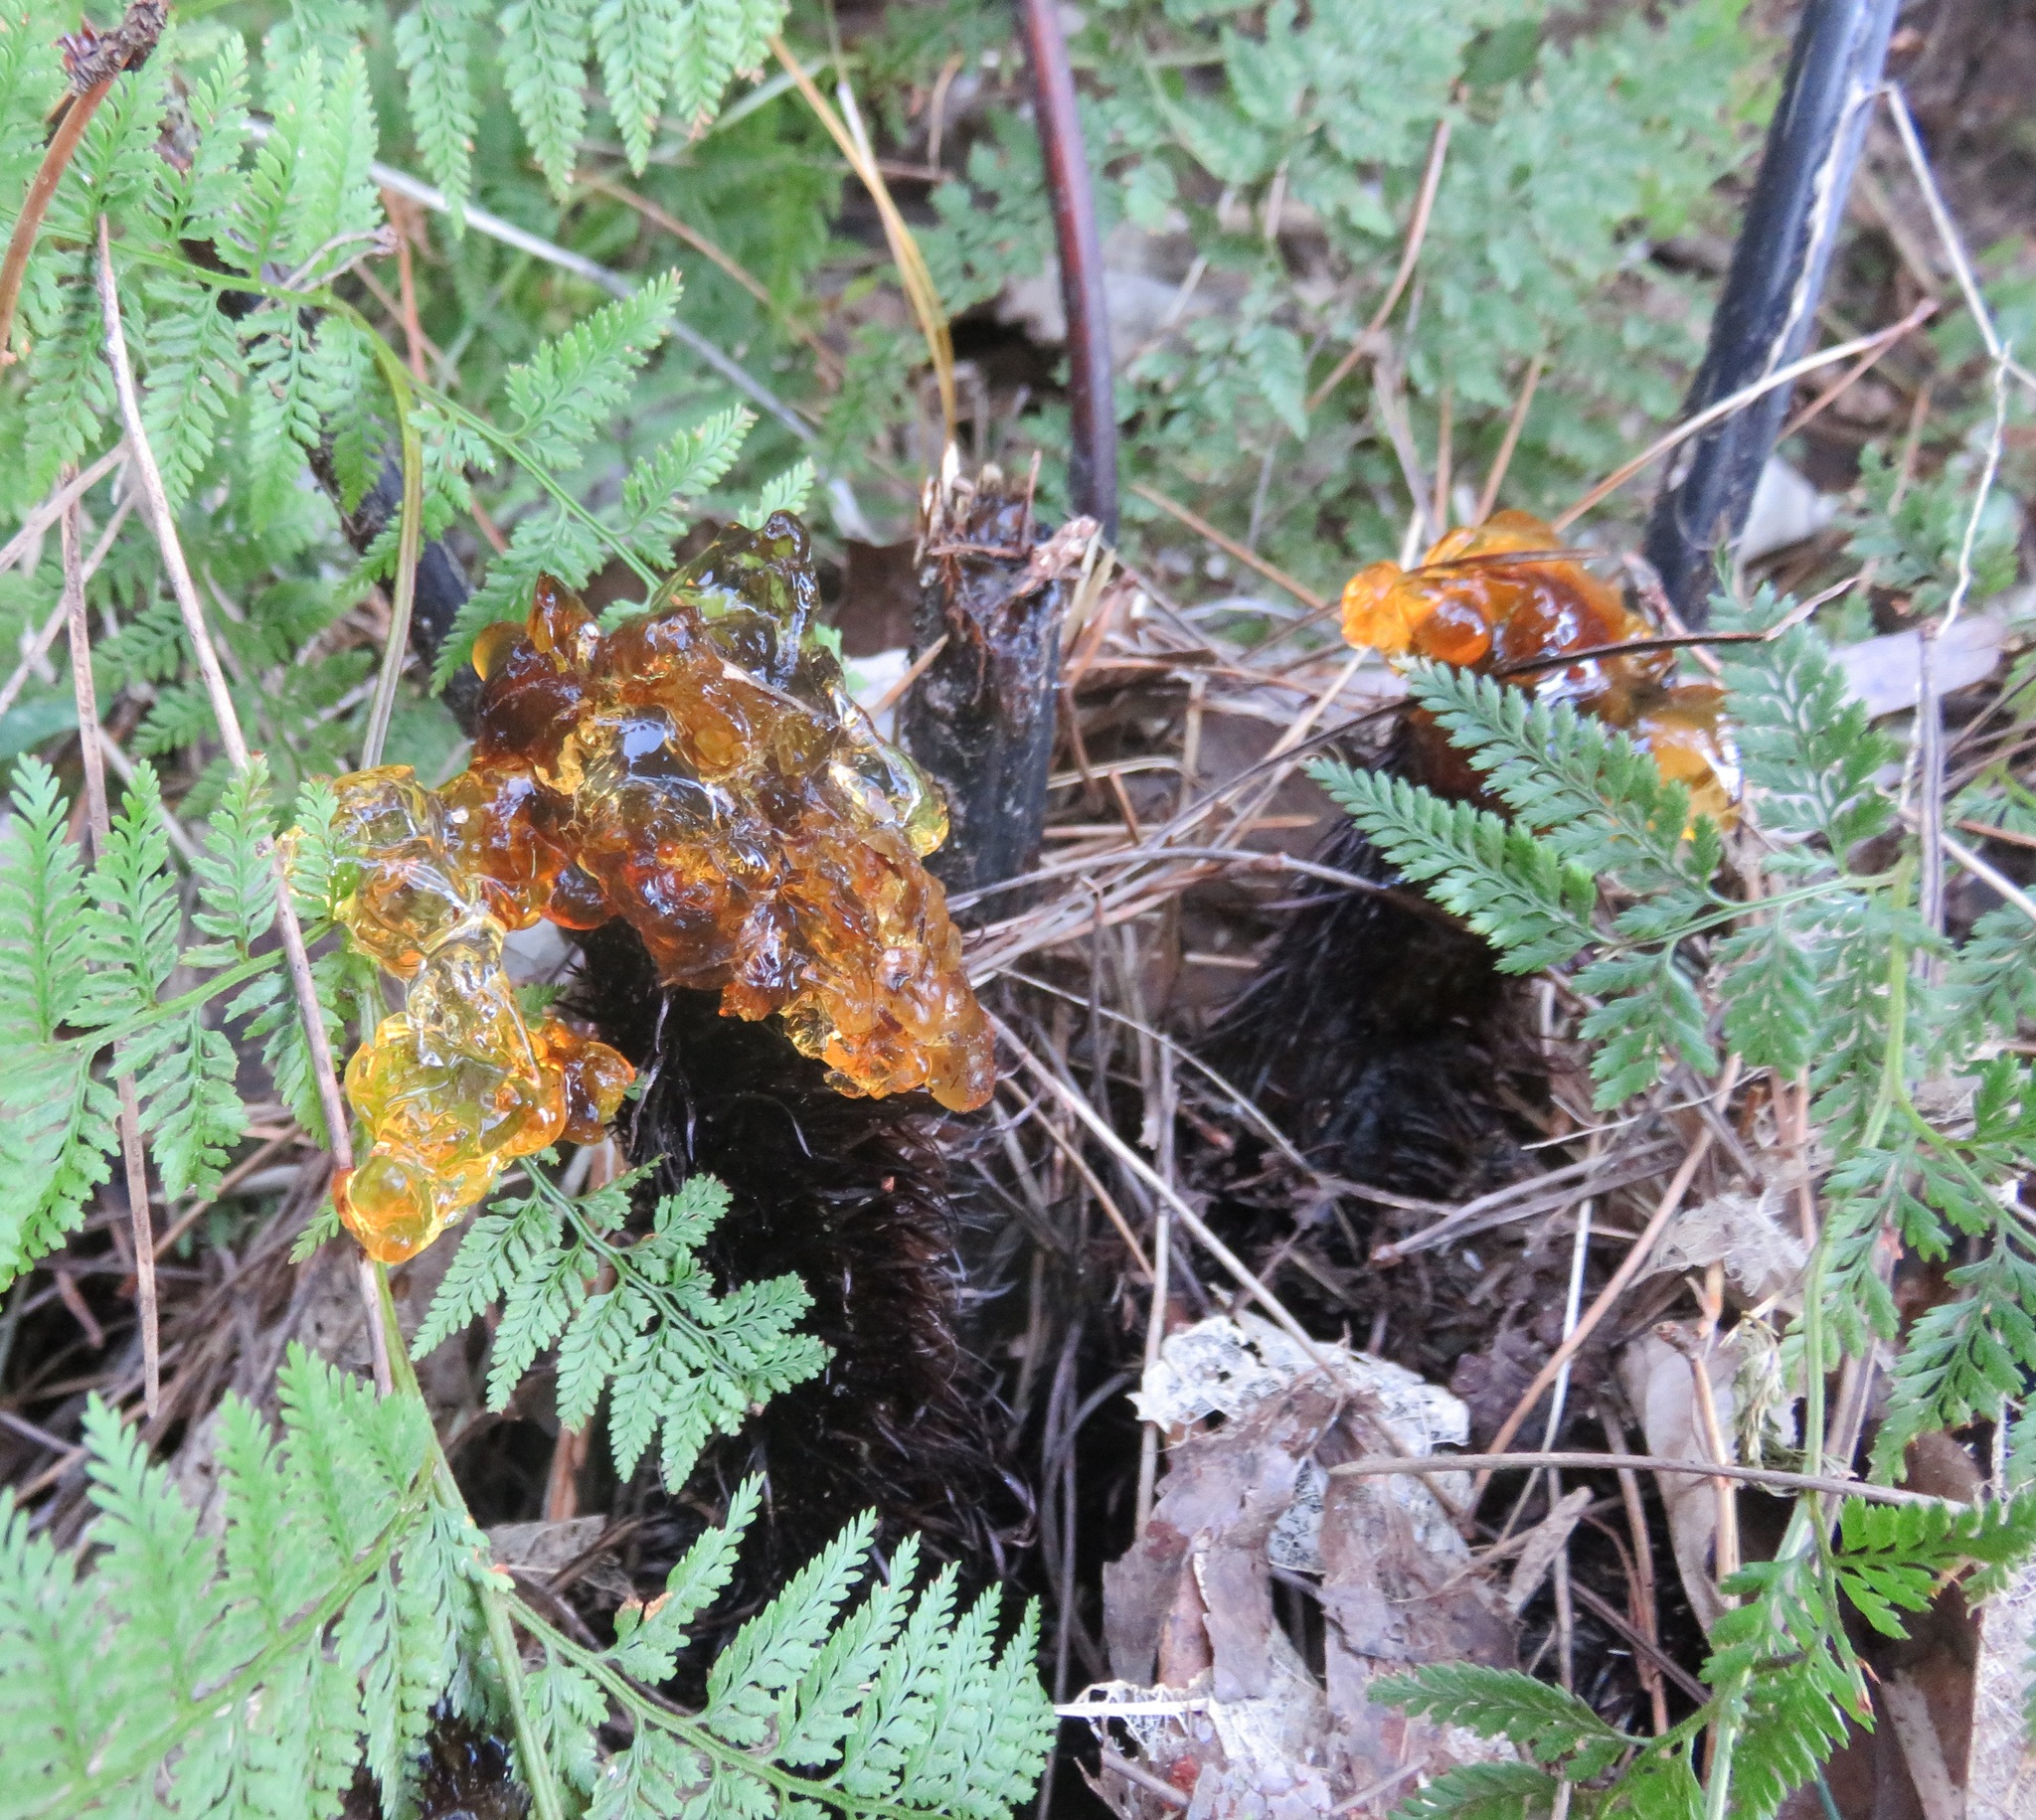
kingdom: Plantae
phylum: Tracheophyta
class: Polypodiopsida
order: Cyatheales
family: Cyatheaceae
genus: Sphaeropteris
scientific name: Sphaeropteris medullaris
